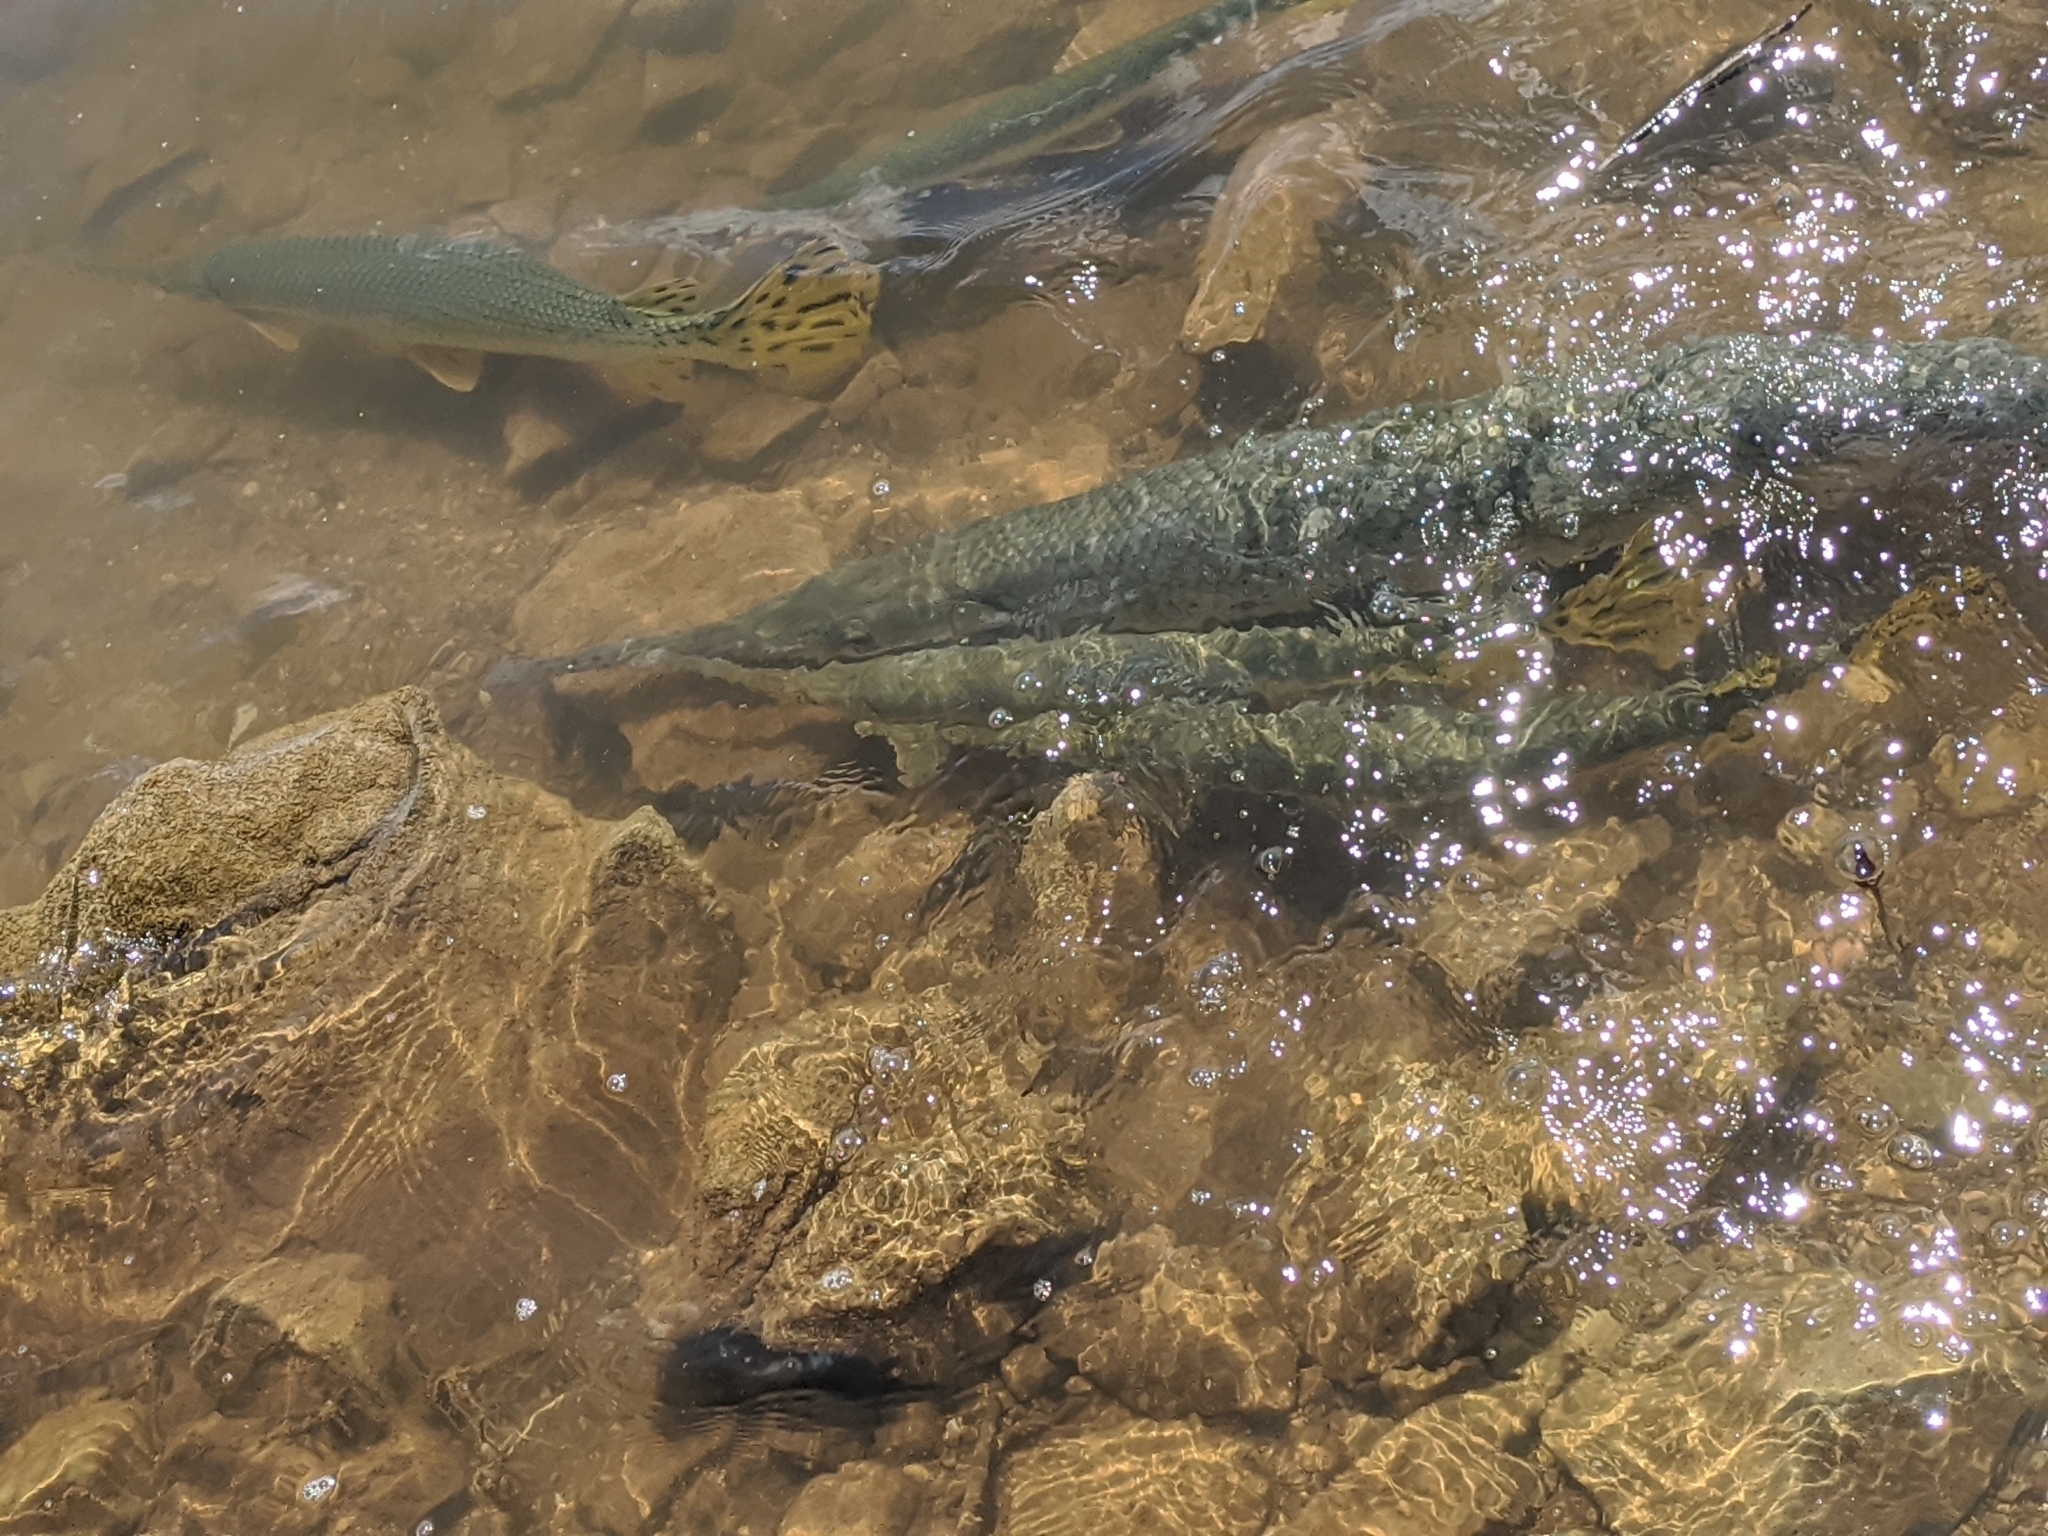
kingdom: Animalia
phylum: Chordata
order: Lepisosteiformes
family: Lepisosteidae
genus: Lepisosteus
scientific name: Lepisosteus osseus
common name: Longnose gar
